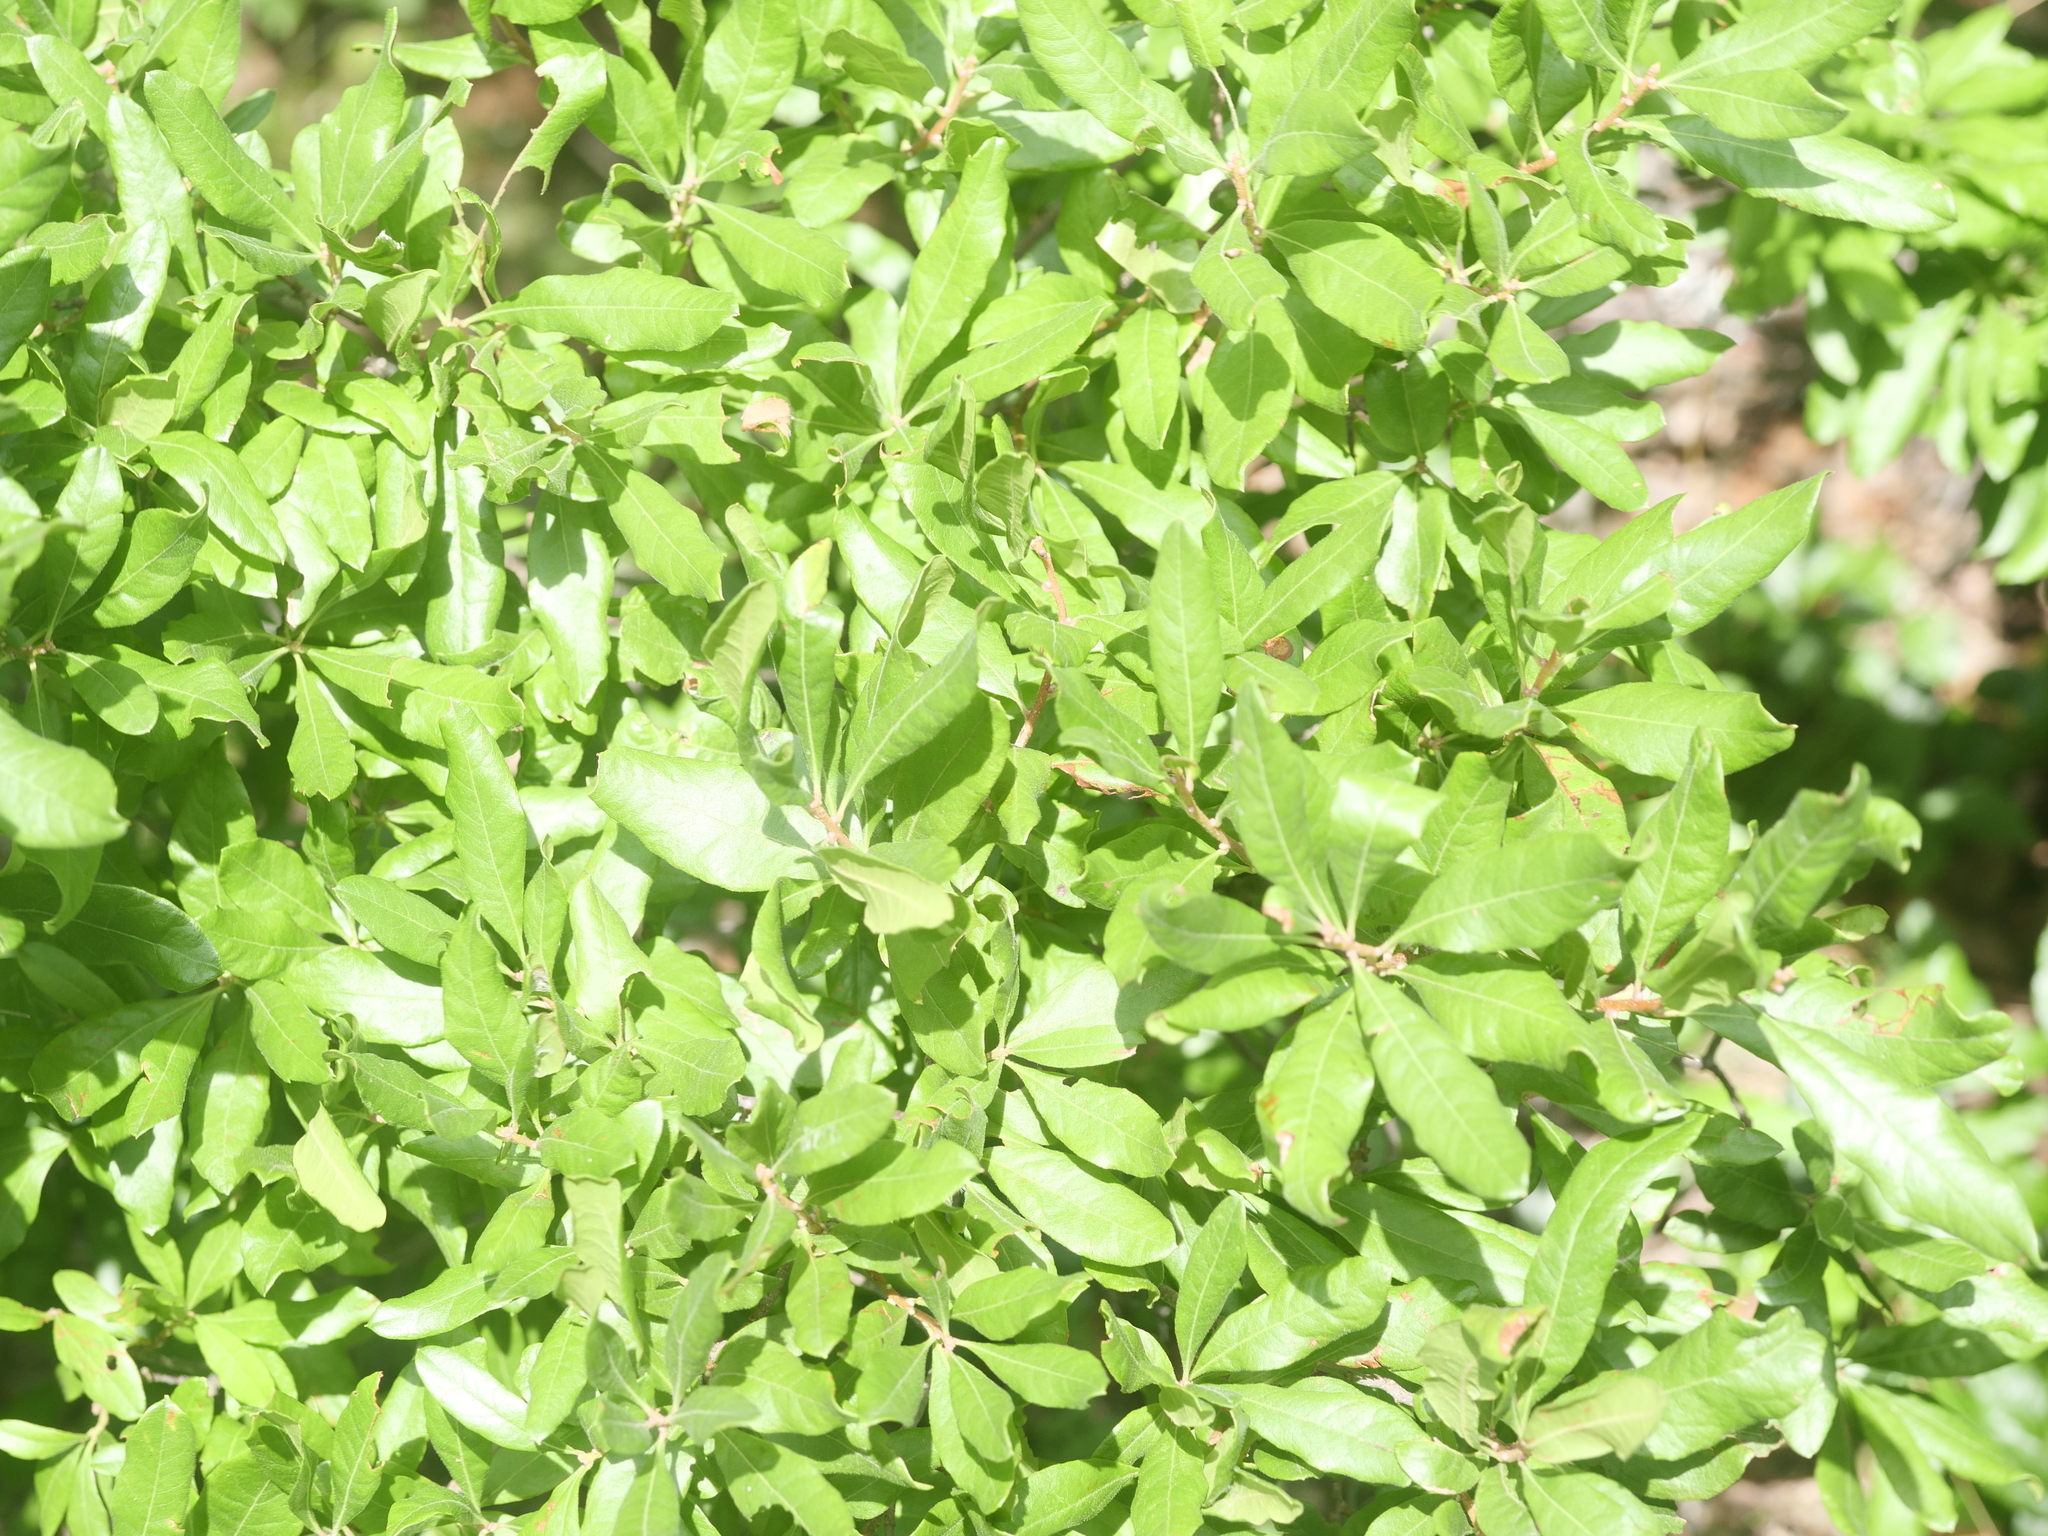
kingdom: Plantae
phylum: Tracheophyta
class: Magnoliopsida
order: Fagales
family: Myricaceae
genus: Morella
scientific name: Morella pensylvanica
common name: Northern bayberry
